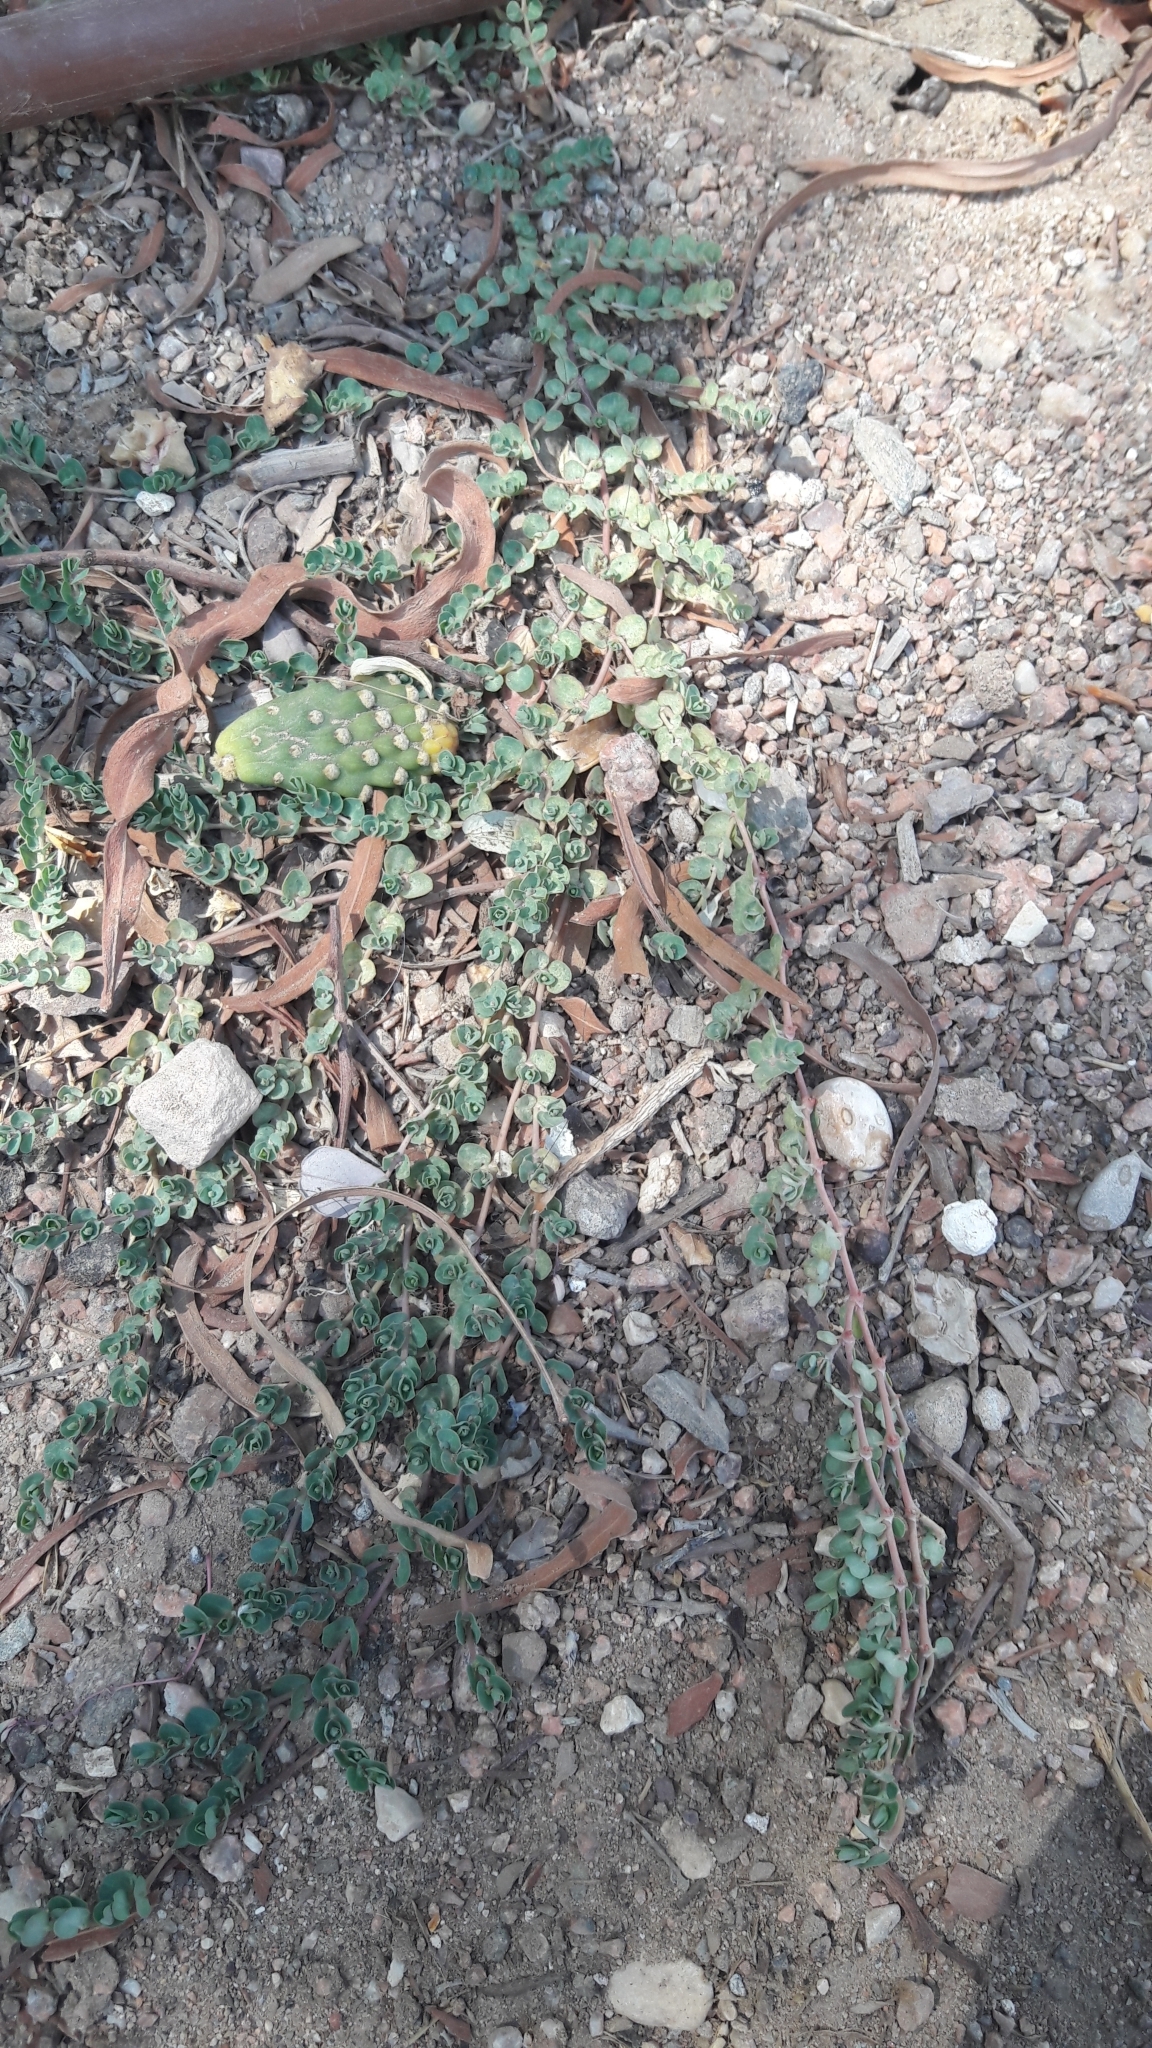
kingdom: Plantae
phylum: Tracheophyta
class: Magnoliopsida
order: Malpighiales
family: Euphorbiaceae
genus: Euphorbia
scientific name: Euphorbia serpens
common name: Matted sandmat
